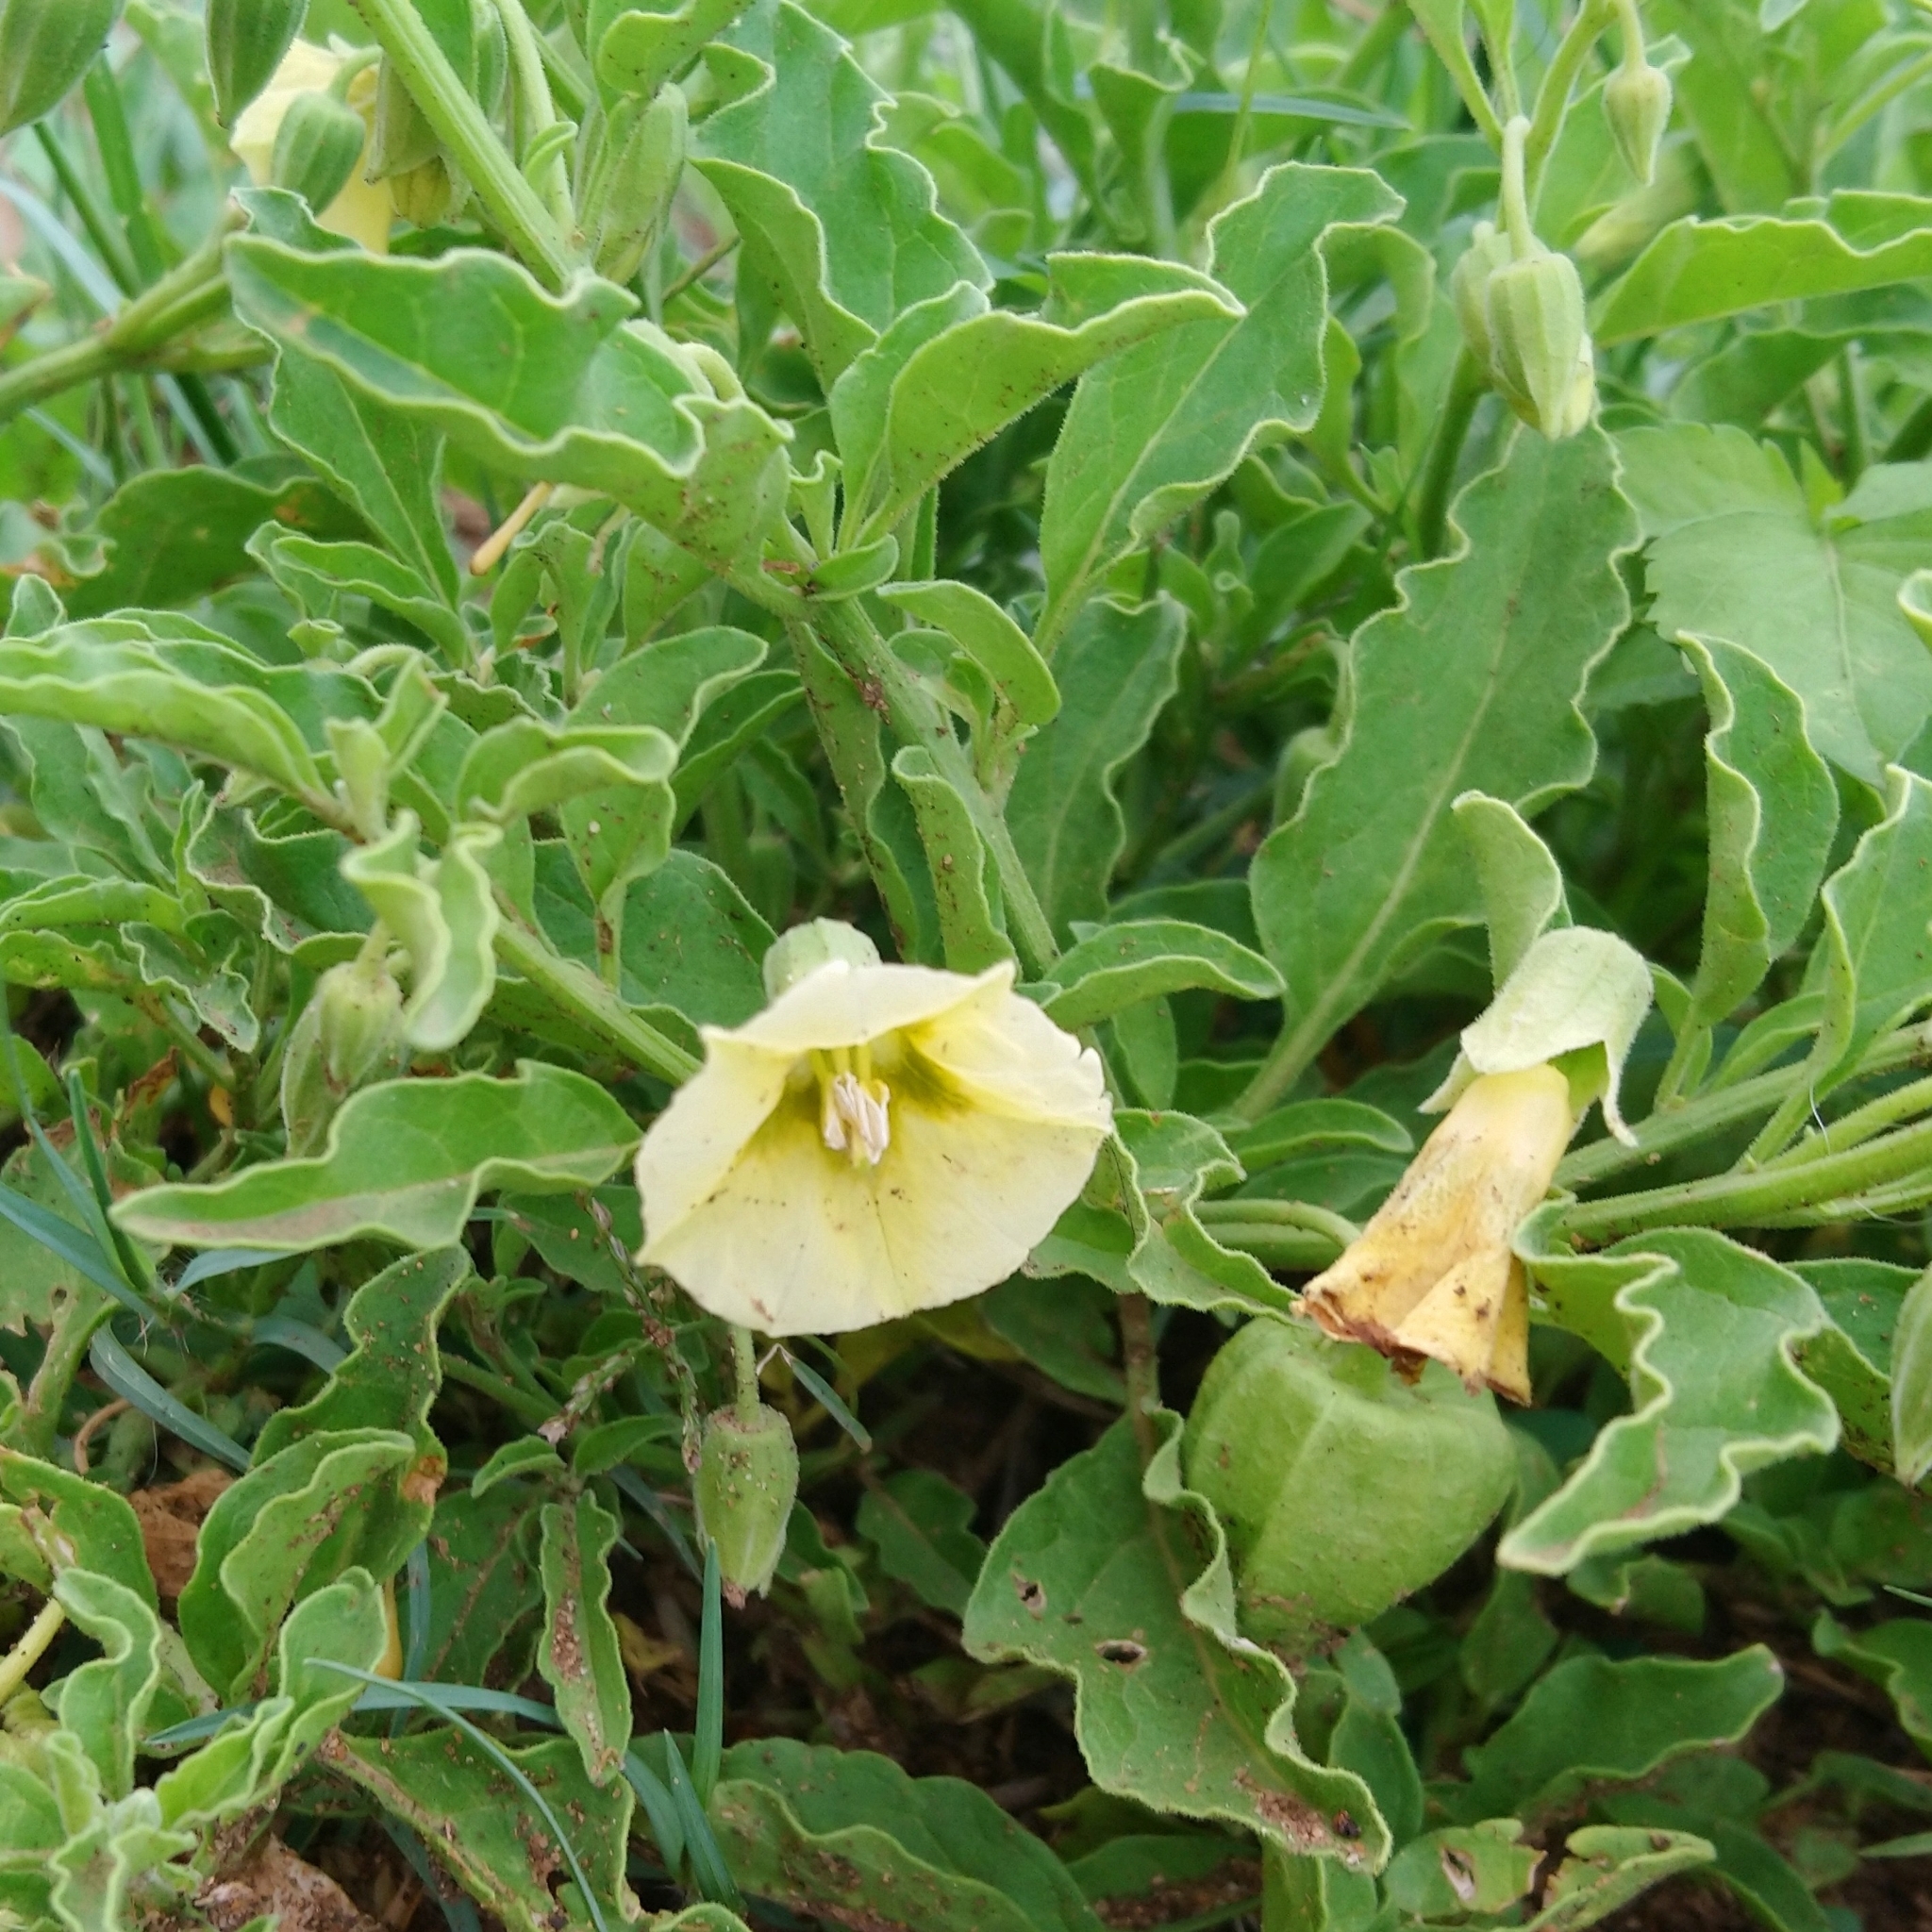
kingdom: Plantae
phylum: Tracheophyta
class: Magnoliopsida
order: Solanales
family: Solanaceae
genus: Physalis
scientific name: Physalis viscosa
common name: Stellate ground-cherry
